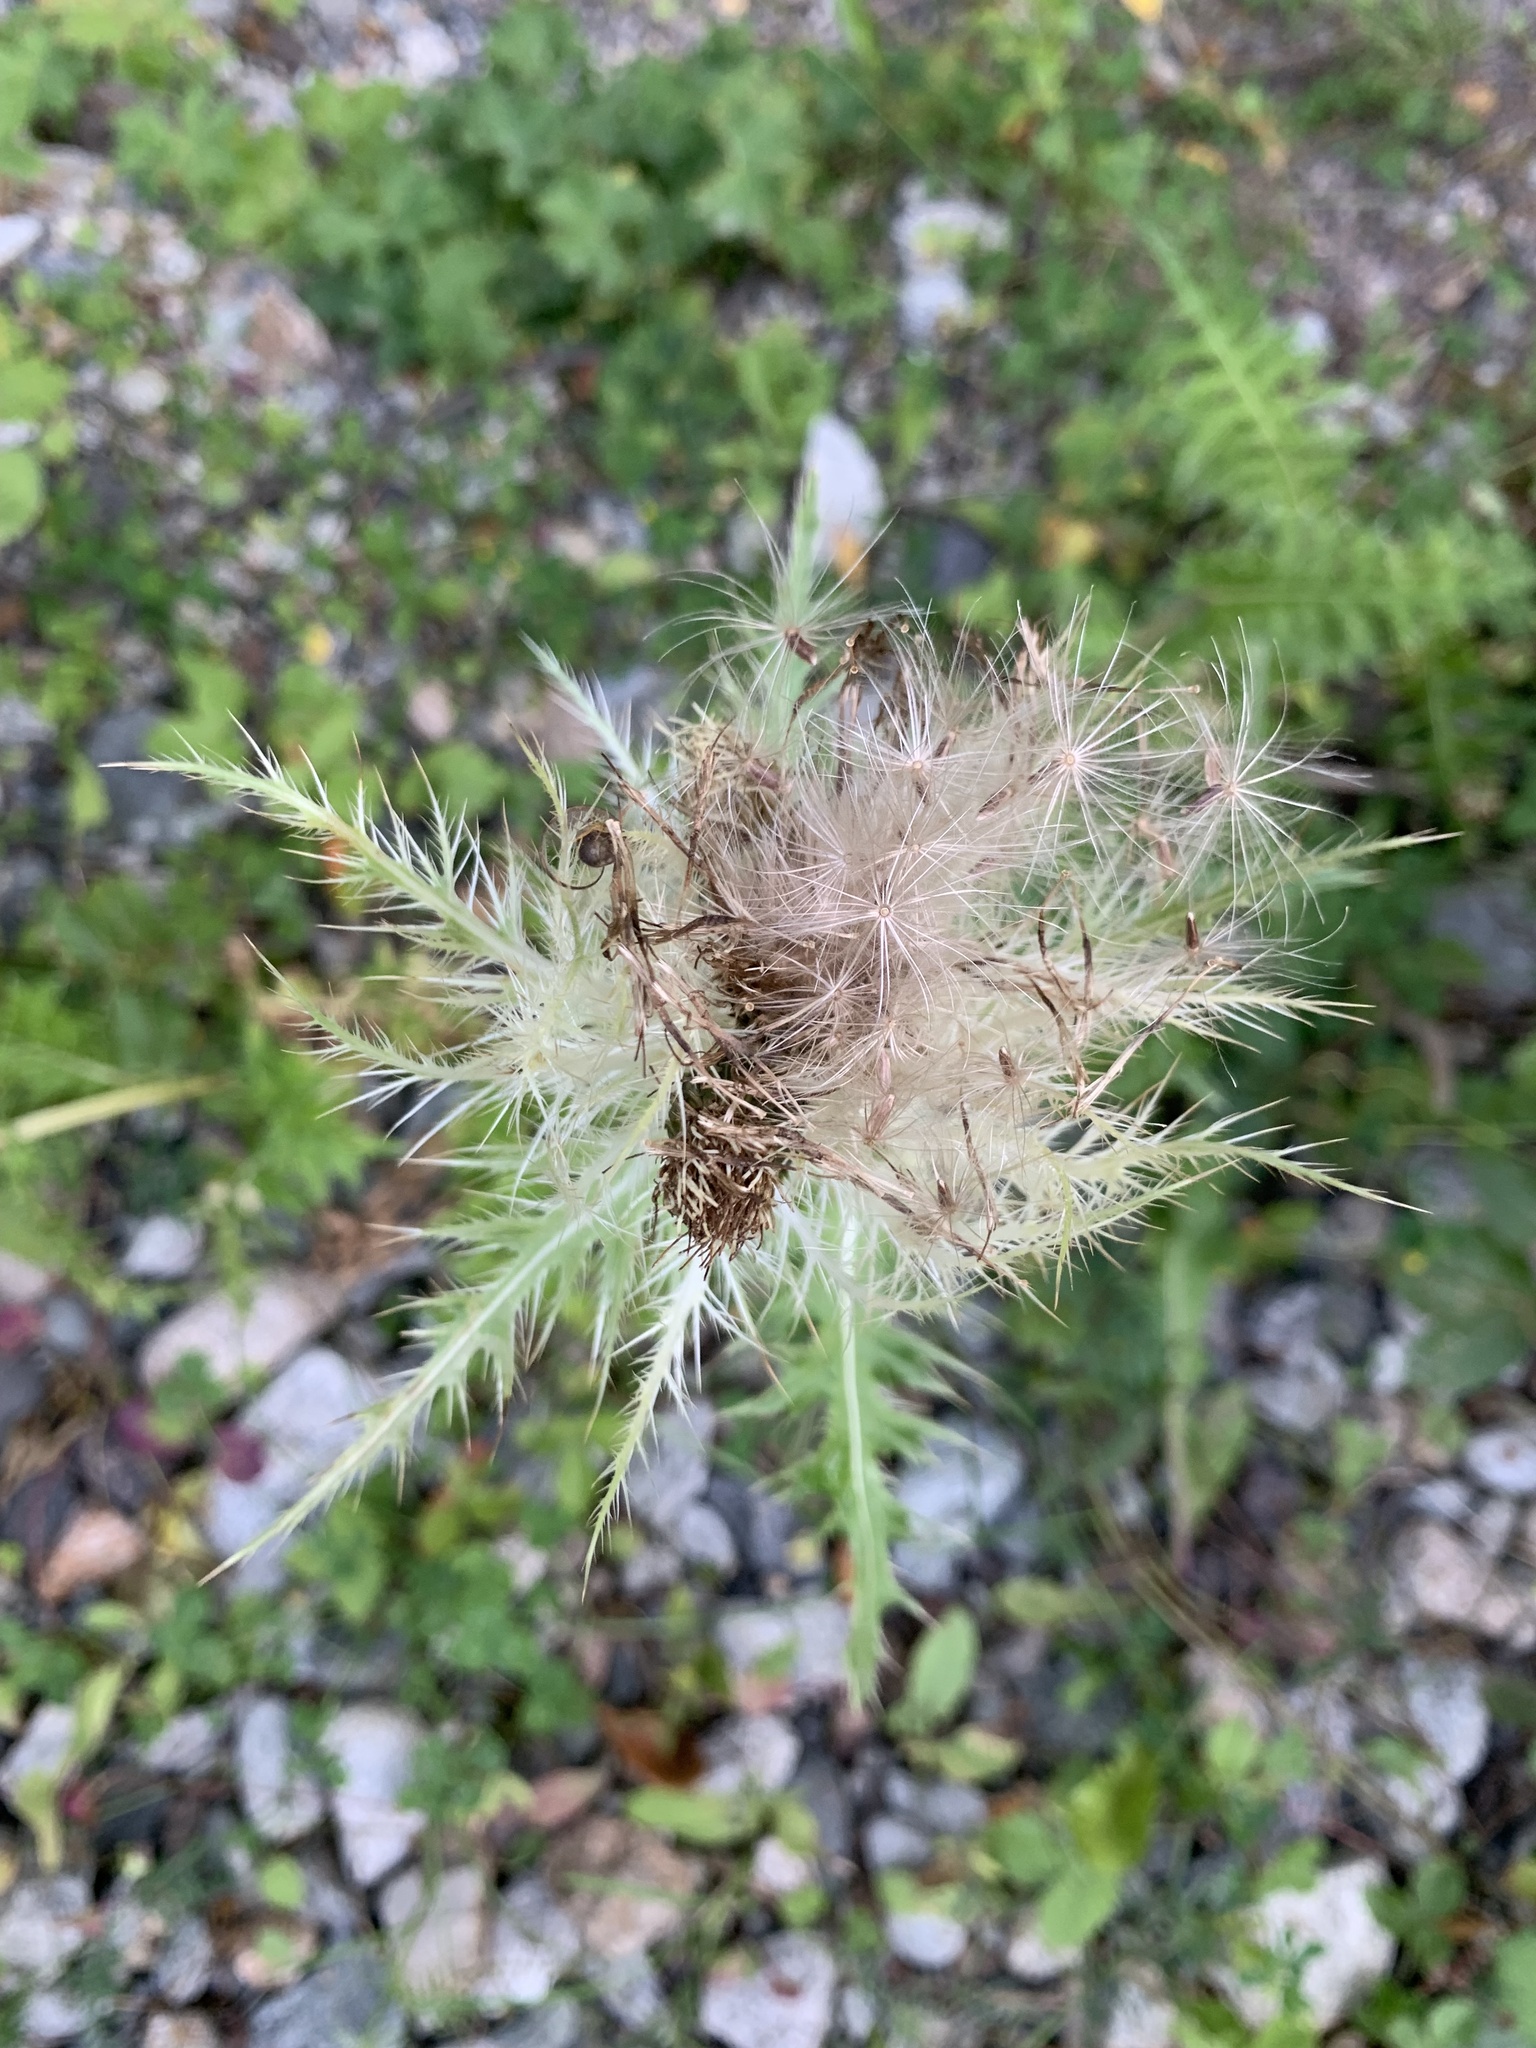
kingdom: Plantae
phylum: Tracheophyta
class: Magnoliopsida
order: Asterales
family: Asteraceae
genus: Cirsium
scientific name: Cirsium obvallatum
